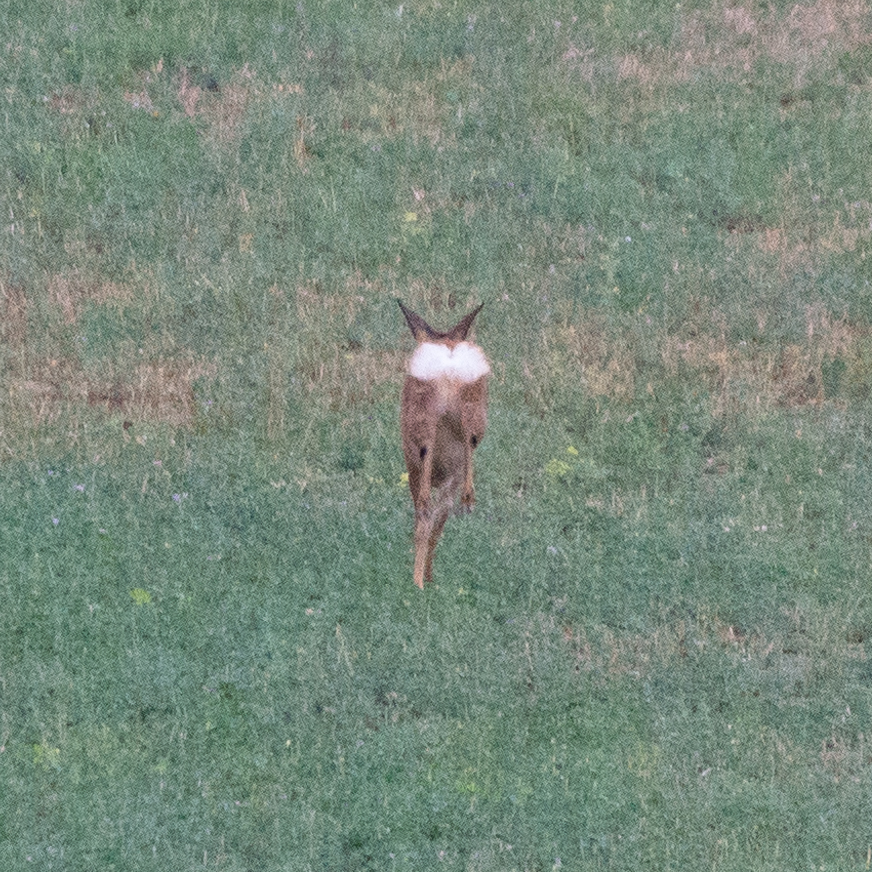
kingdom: Animalia
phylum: Chordata
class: Mammalia
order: Artiodactyla
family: Cervidae
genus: Capreolus
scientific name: Capreolus capreolus
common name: Western roe deer
